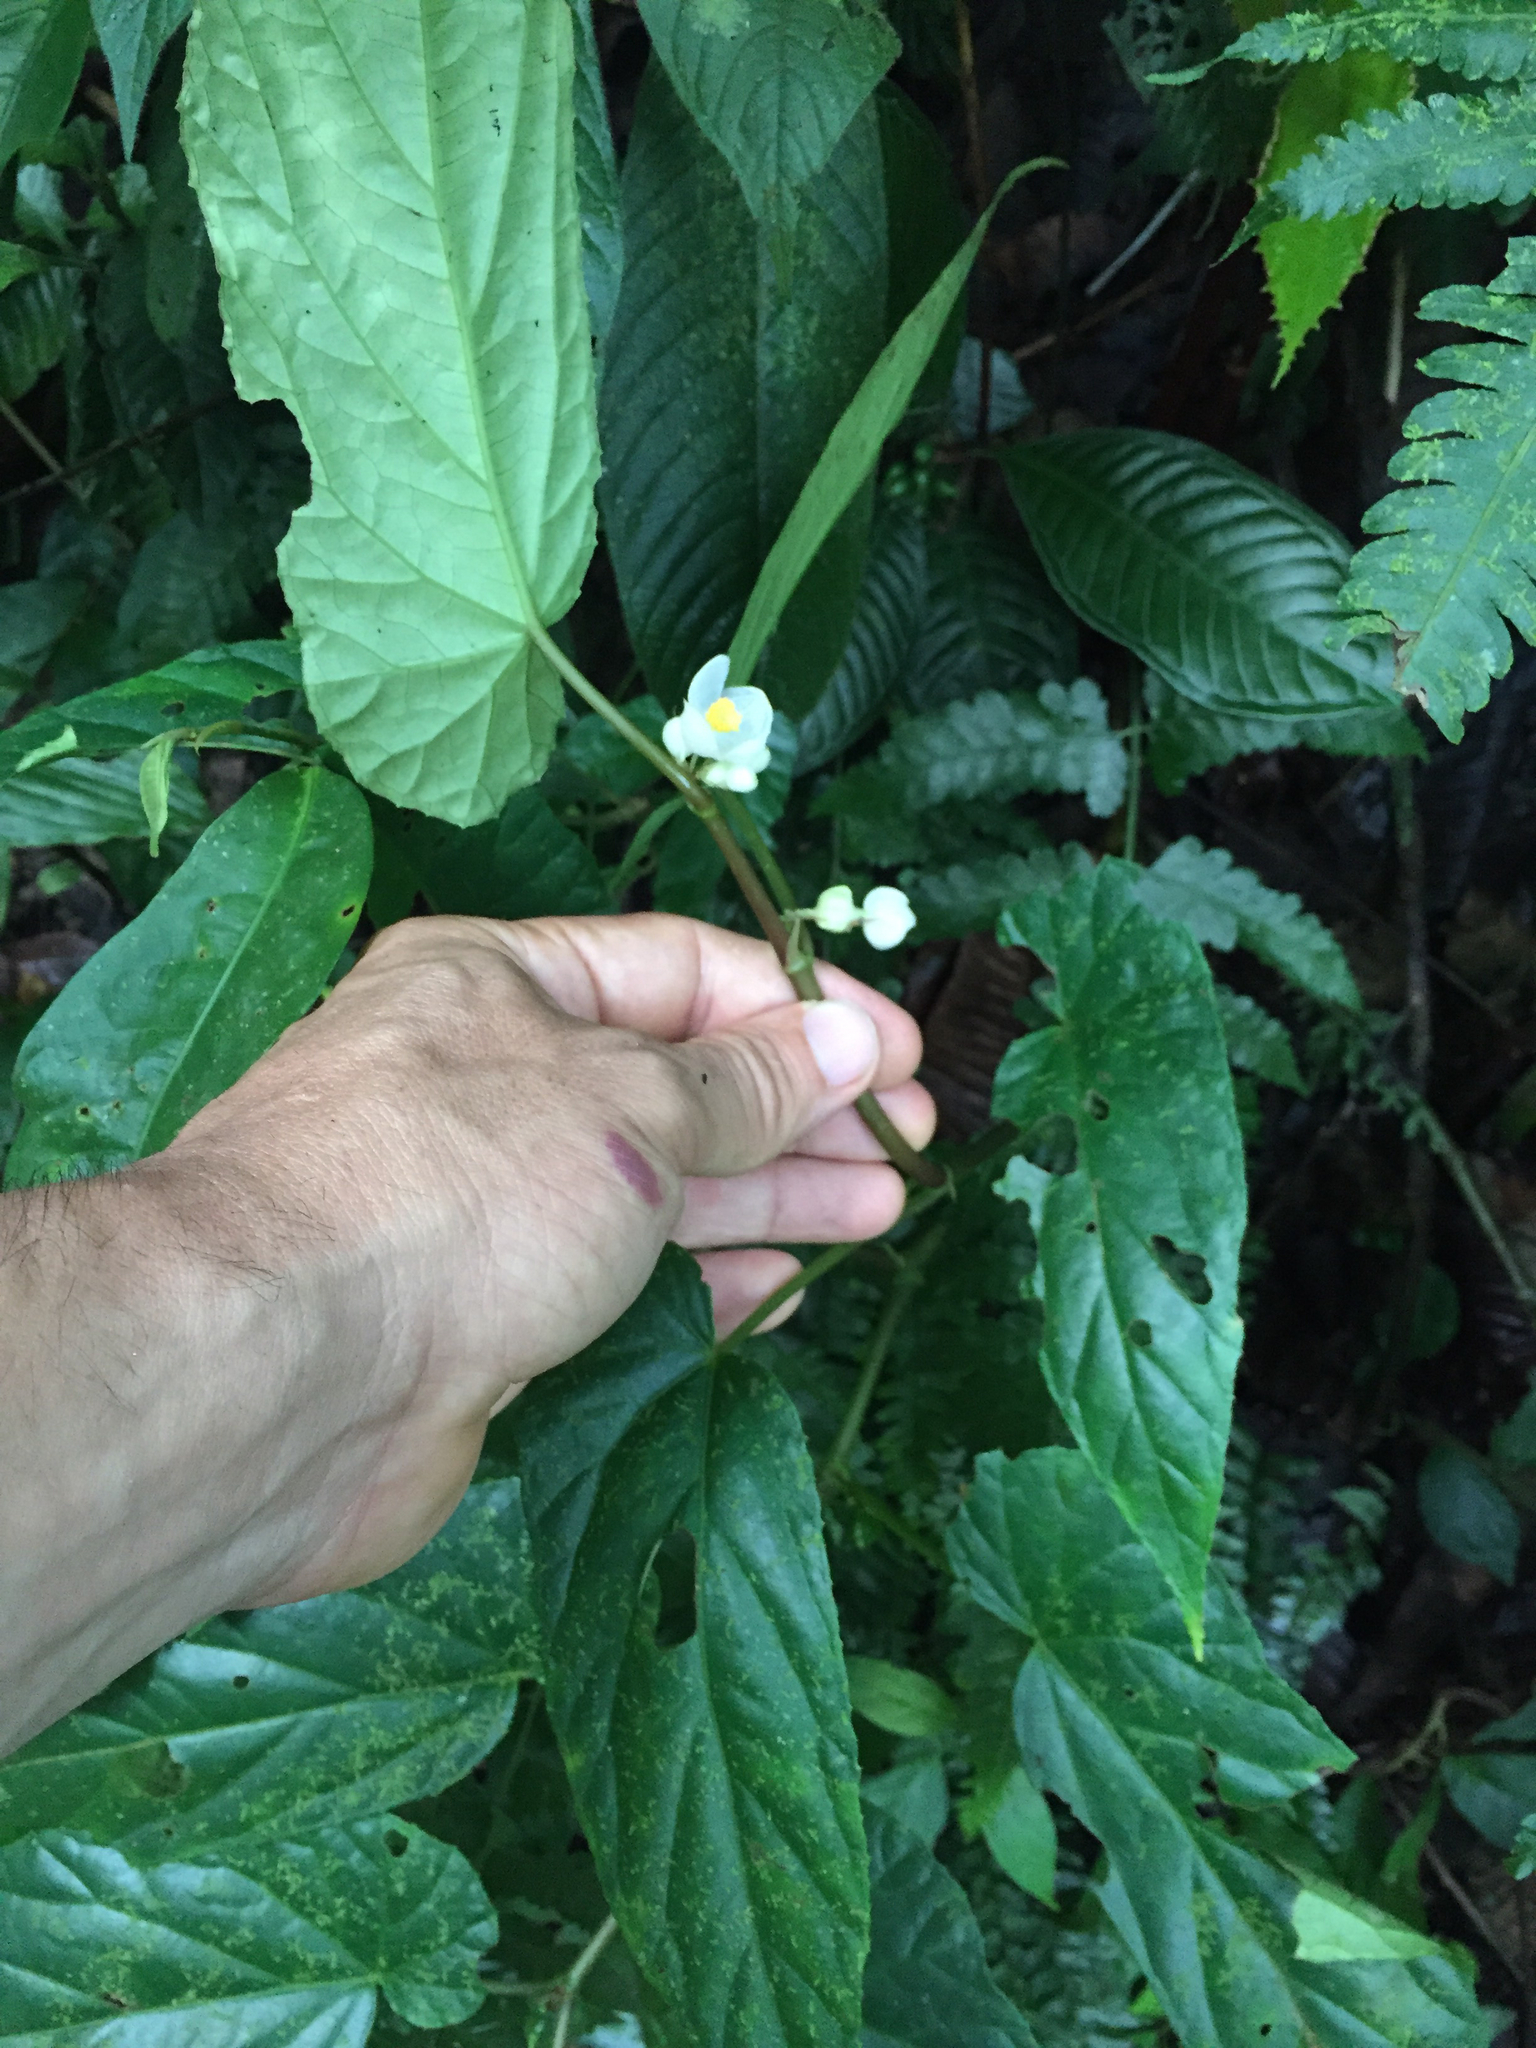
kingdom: Plantae
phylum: Tracheophyta
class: Magnoliopsida
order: Cucurbitales
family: Begoniaceae
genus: Begonia
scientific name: Begonia longifolia
